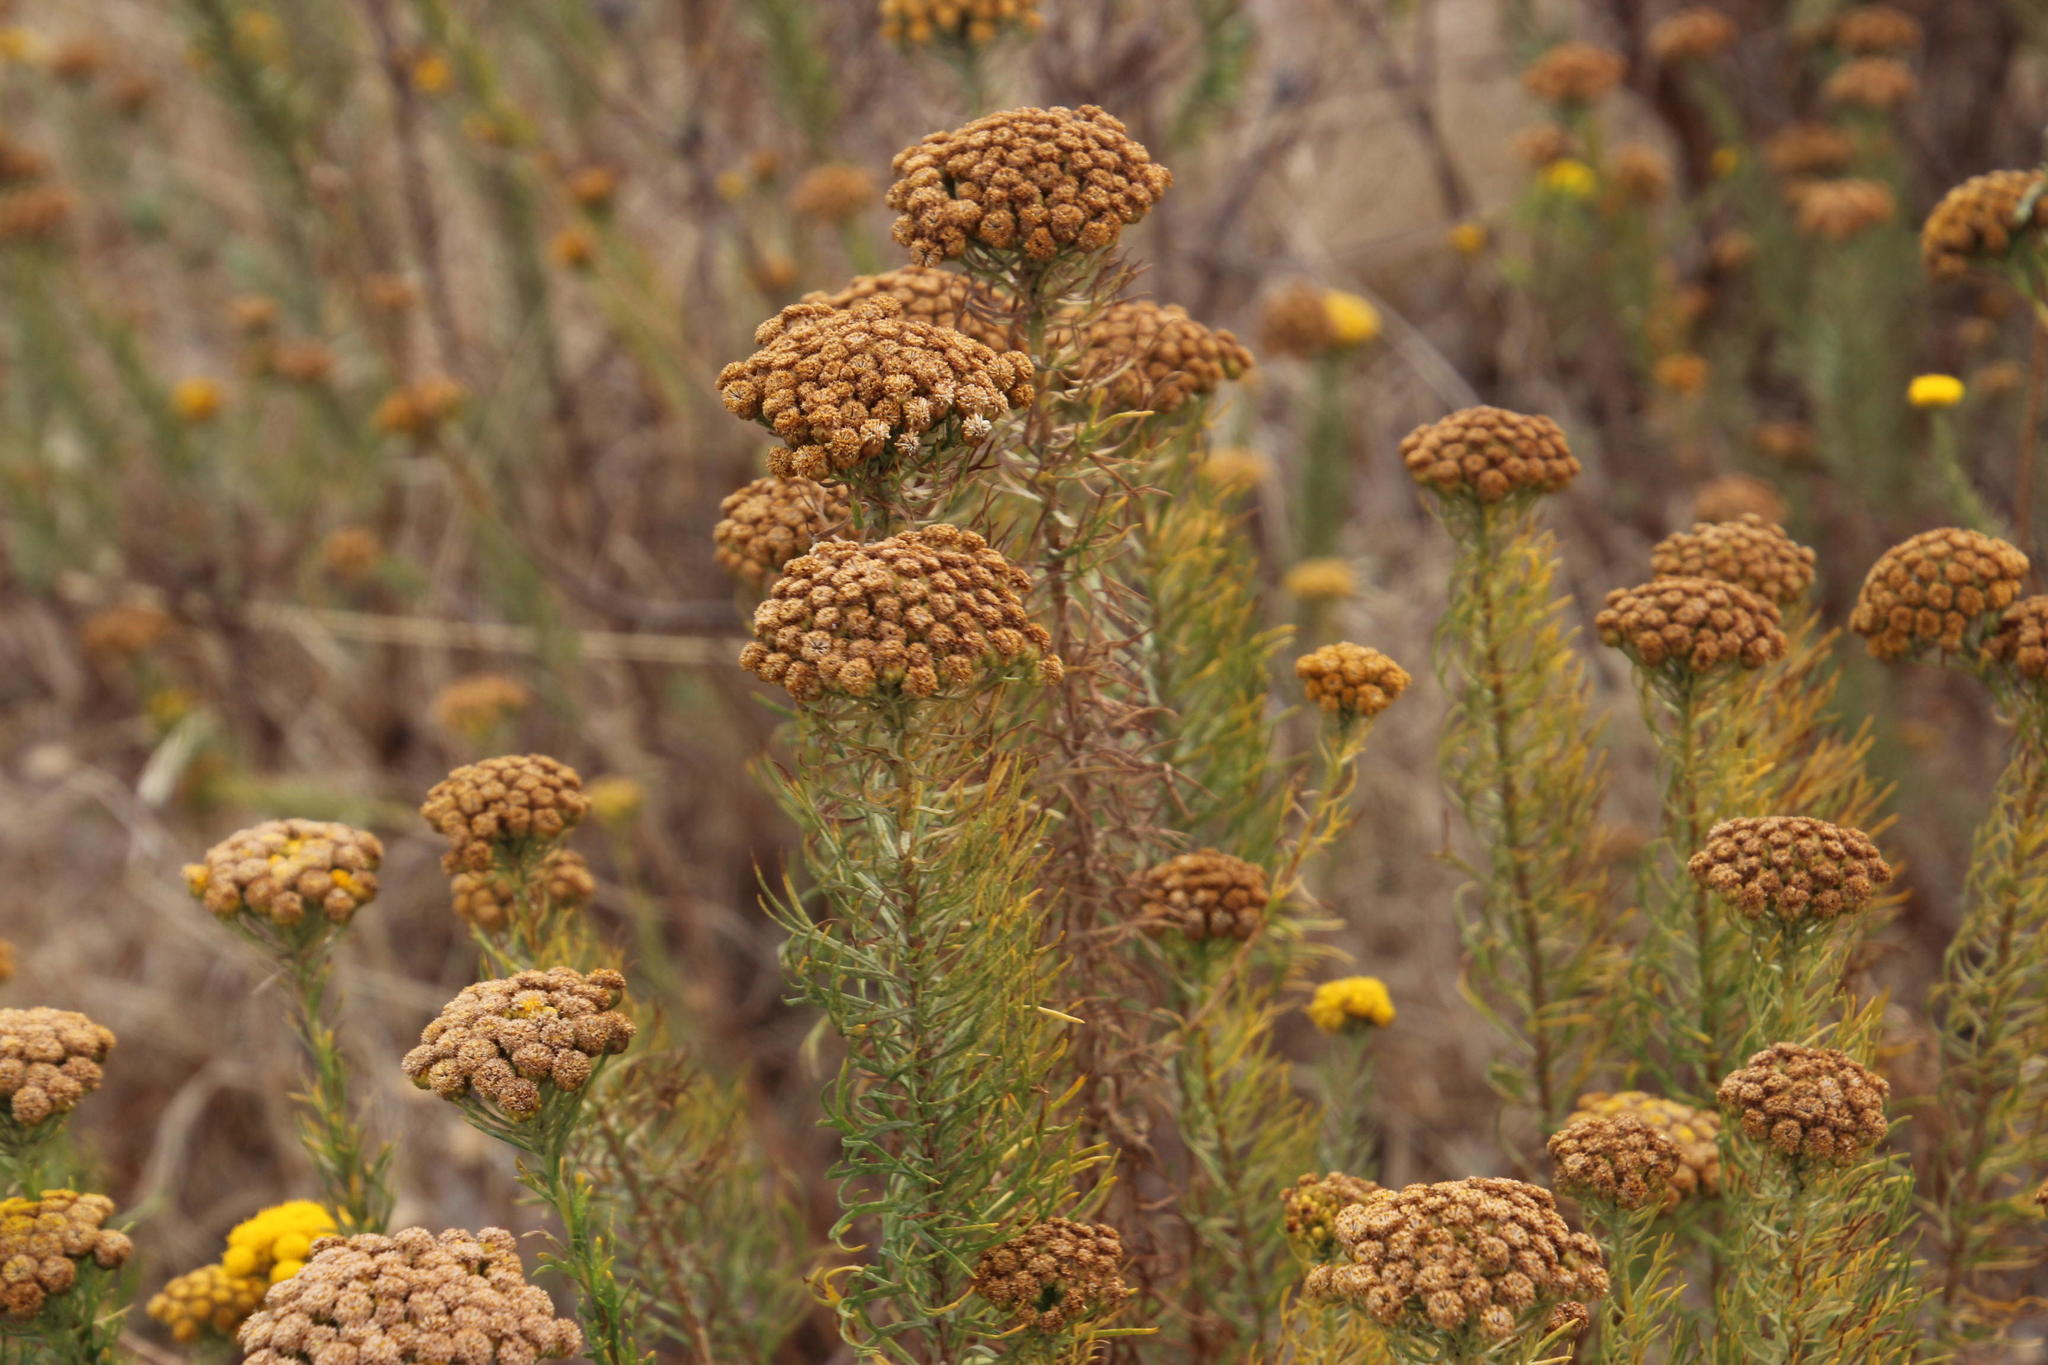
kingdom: Plantae
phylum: Tracheophyta
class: Magnoliopsida
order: Asterales
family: Asteraceae
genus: Athanasia
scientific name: Athanasia crithmifolia
